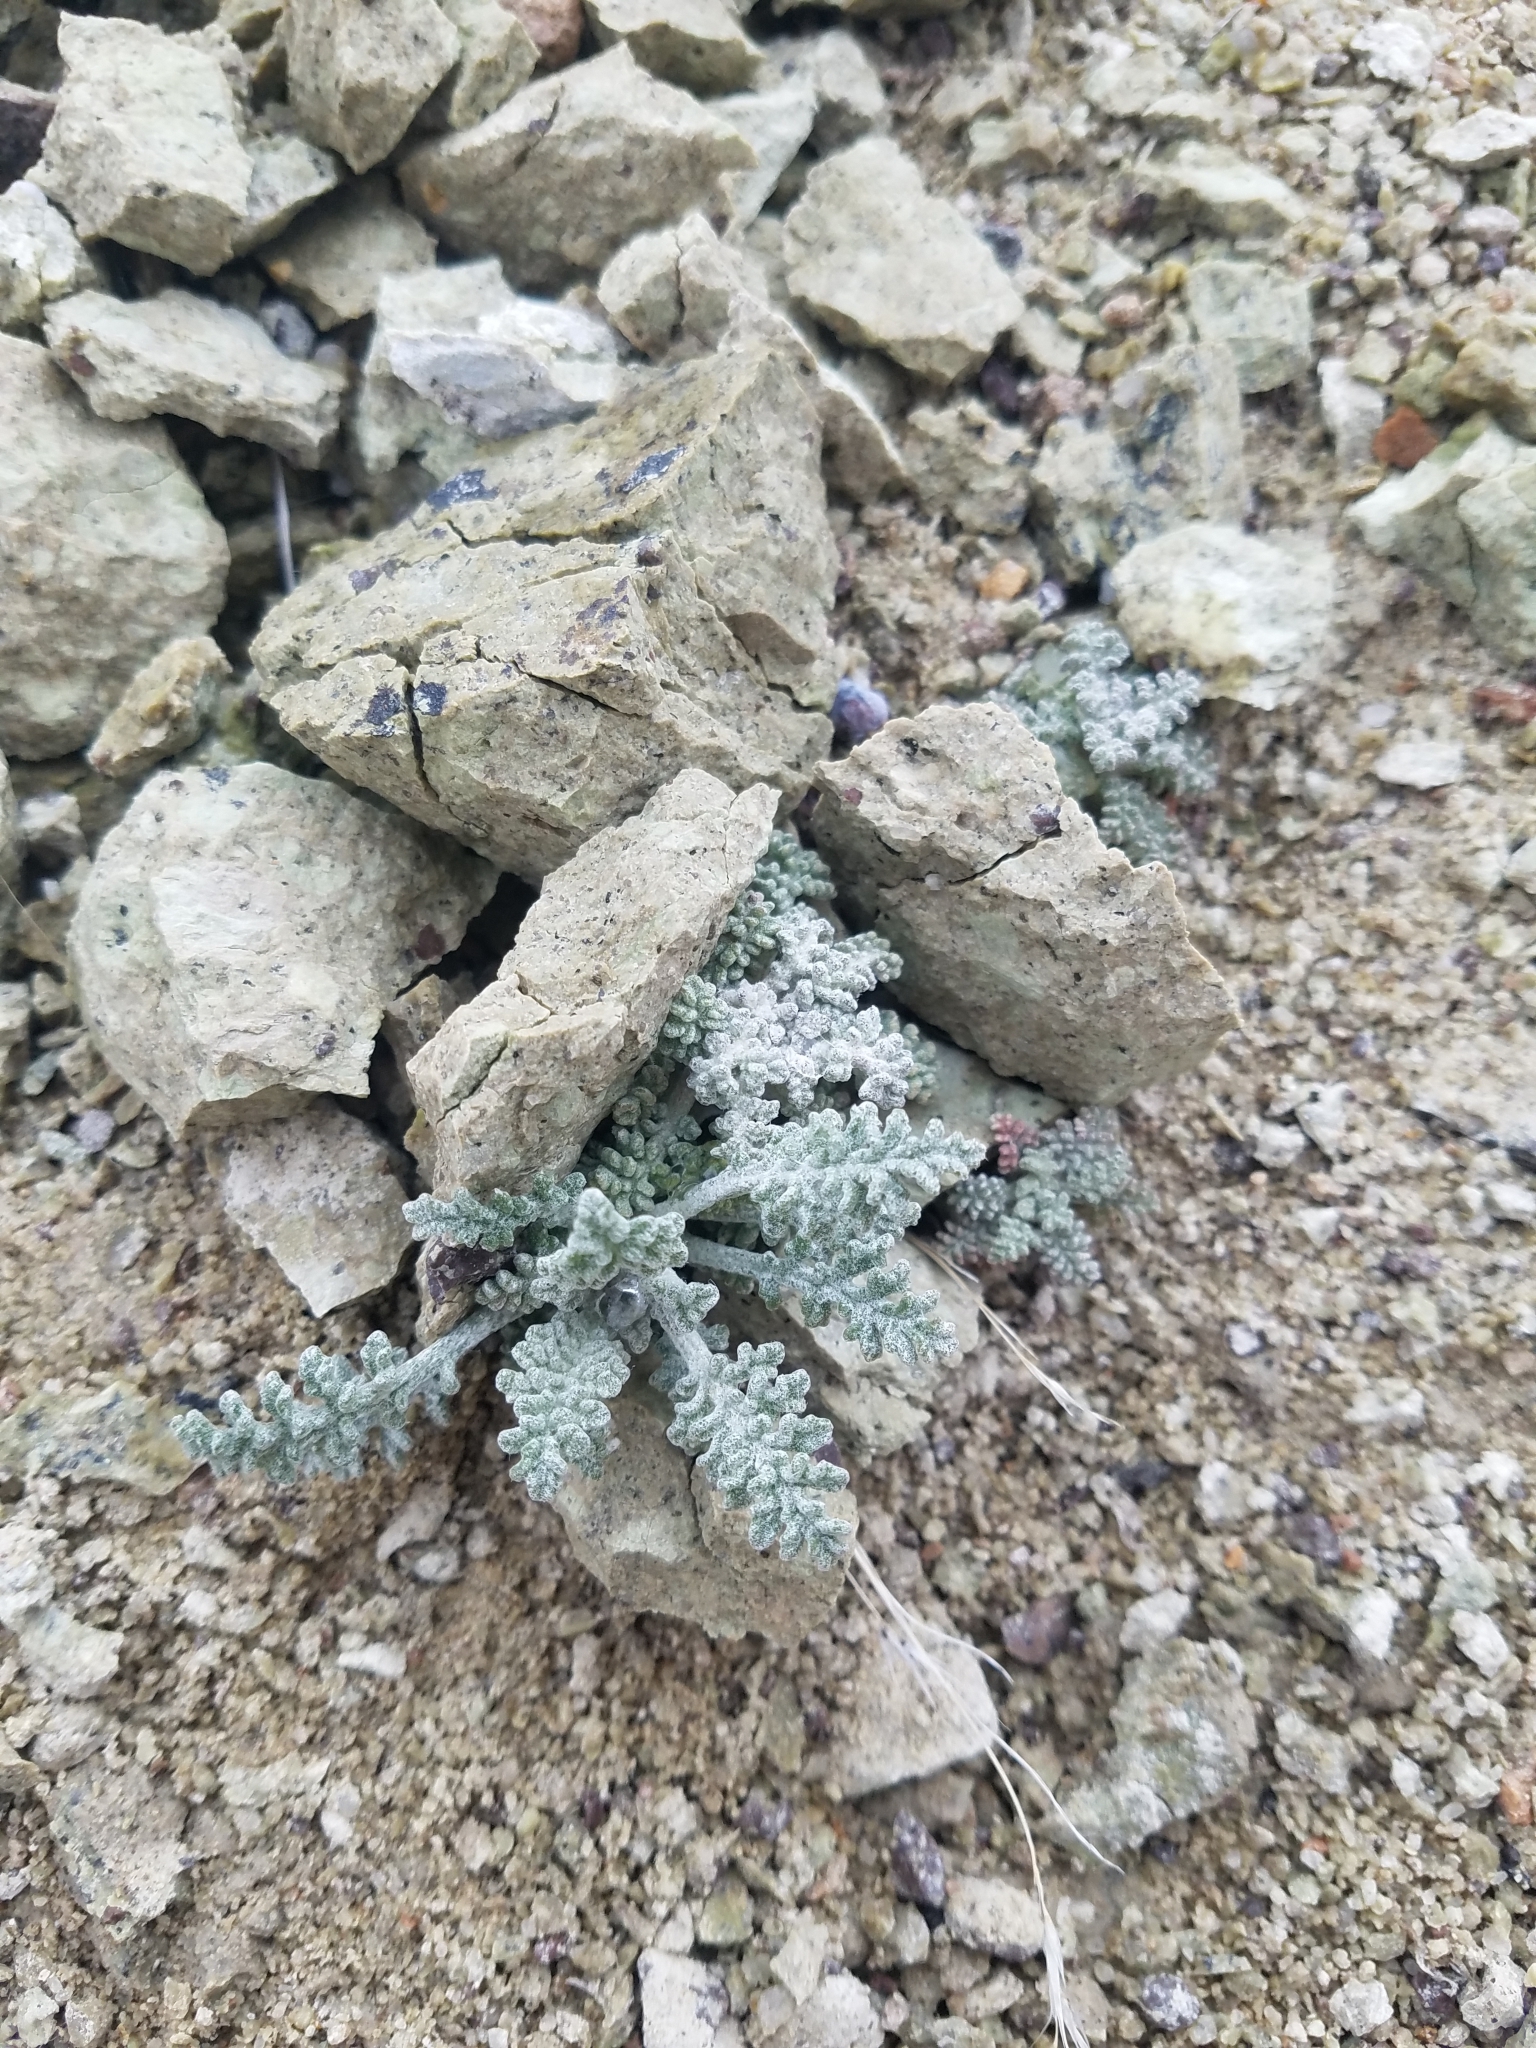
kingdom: Plantae
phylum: Tracheophyta
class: Magnoliopsida
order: Asterales
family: Asteraceae
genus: Chaenactis
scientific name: Chaenactis douglasii
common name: Hoary pincushion
